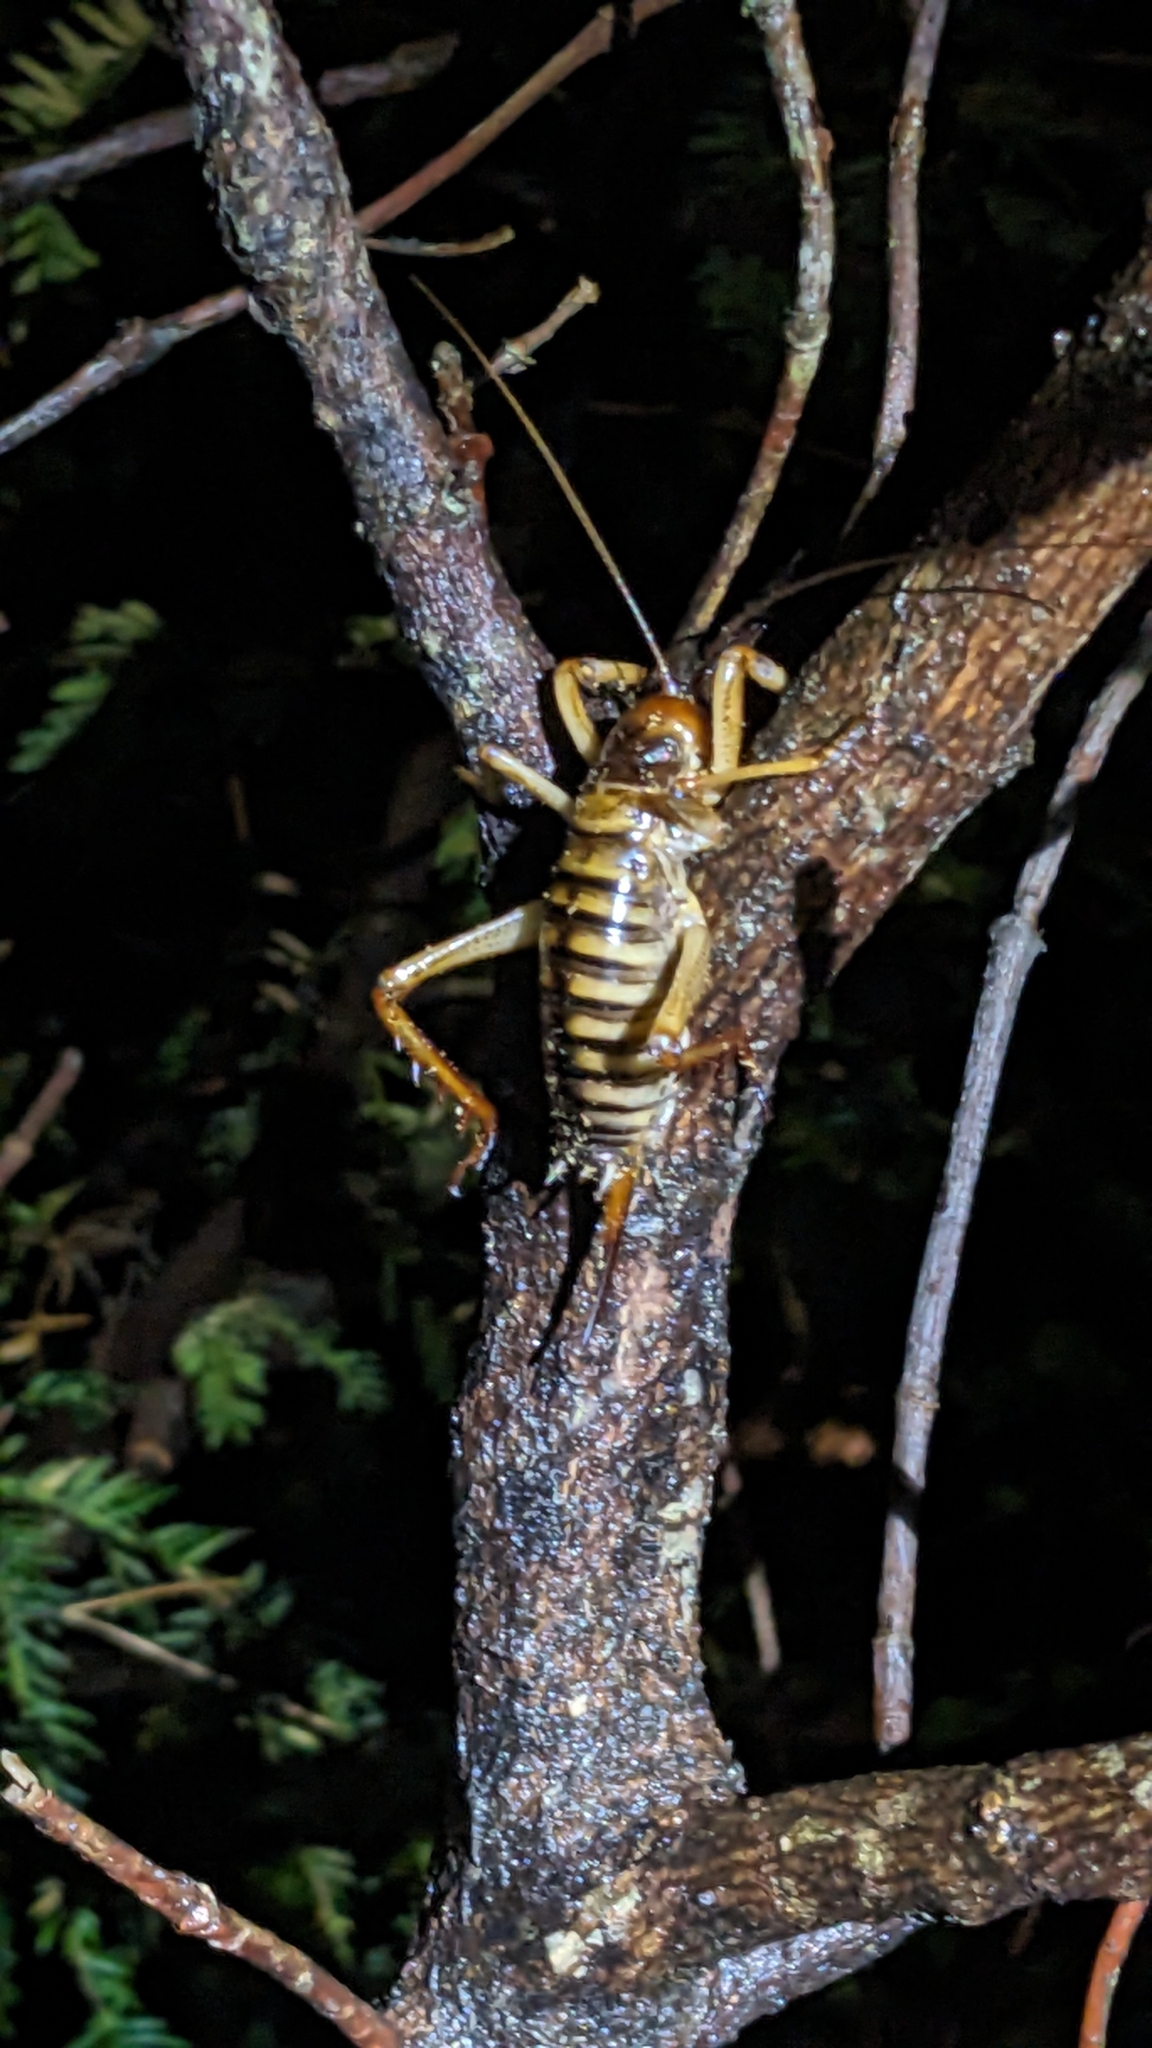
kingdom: Animalia
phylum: Arthropoda
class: Insecta
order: Orthoptera
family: Anostostomatidae
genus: Hemideina
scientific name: Hemideina crassidens
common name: Wellington tree weta
